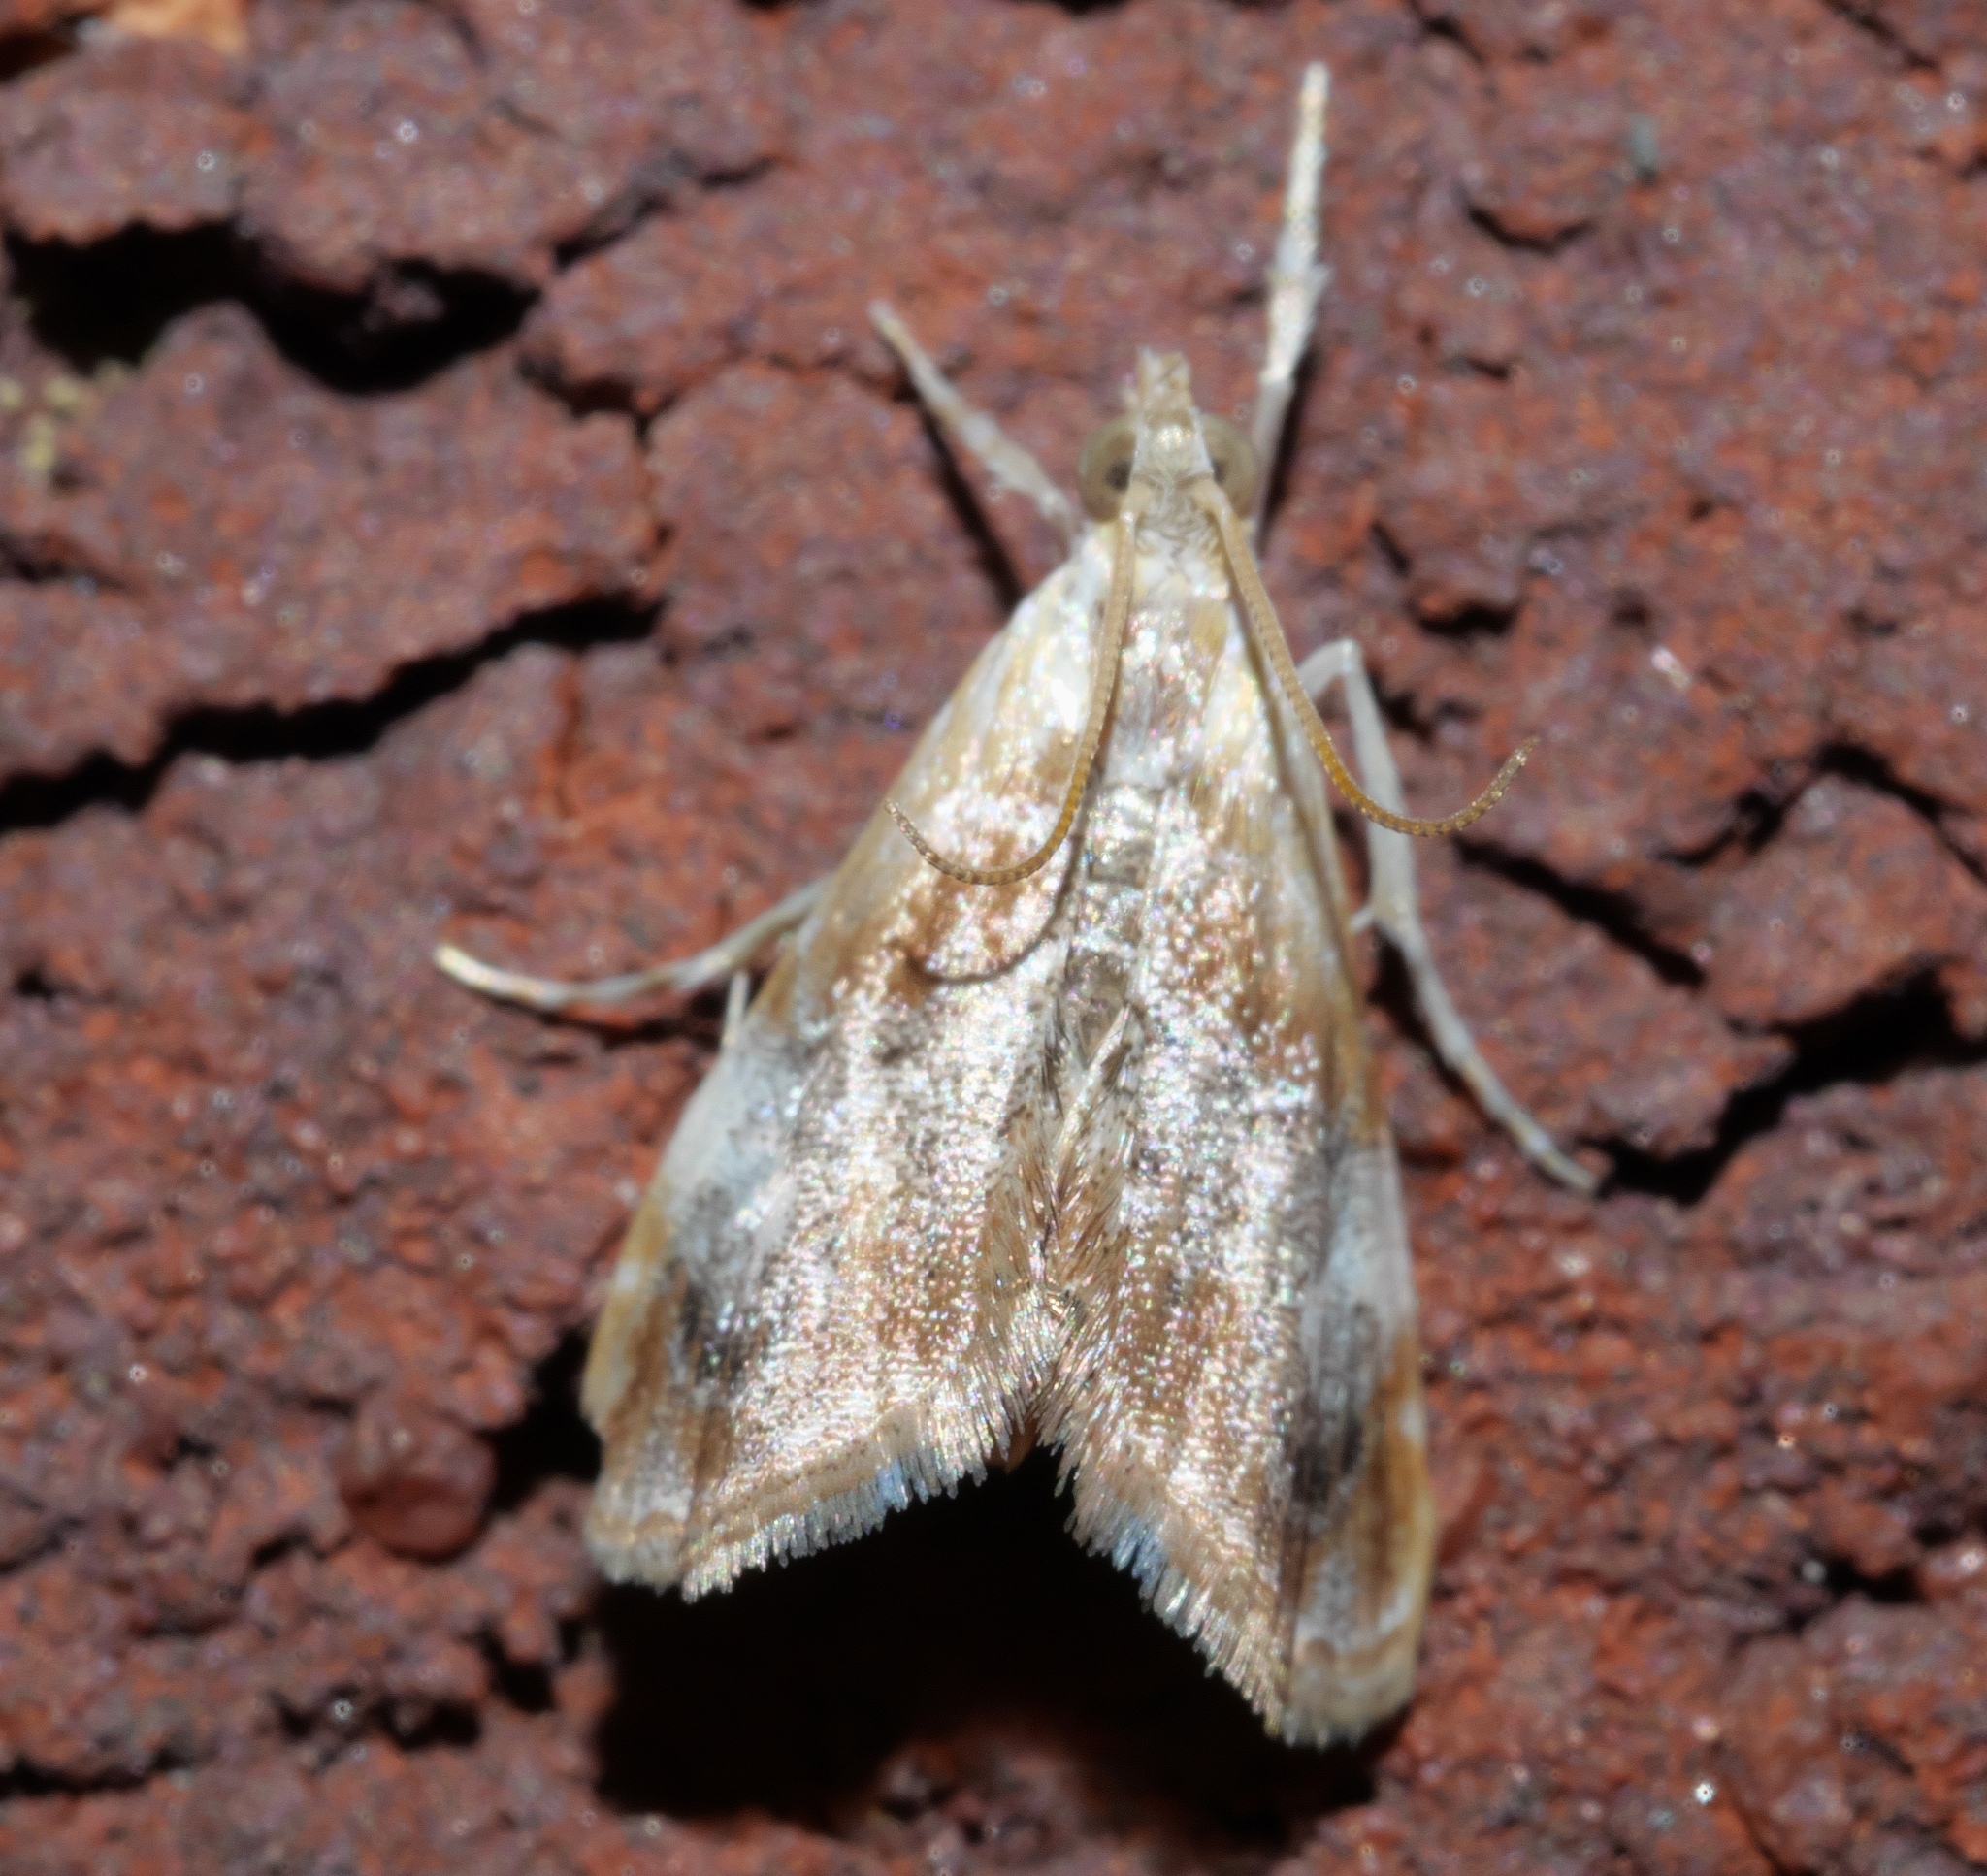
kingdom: Animalia
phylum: Arthropoda
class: Insecta
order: Lepidoptera
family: Crambidae
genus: Dicymolomia
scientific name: Dicymolomia julianalis
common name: Julia's dicymolomia moth
